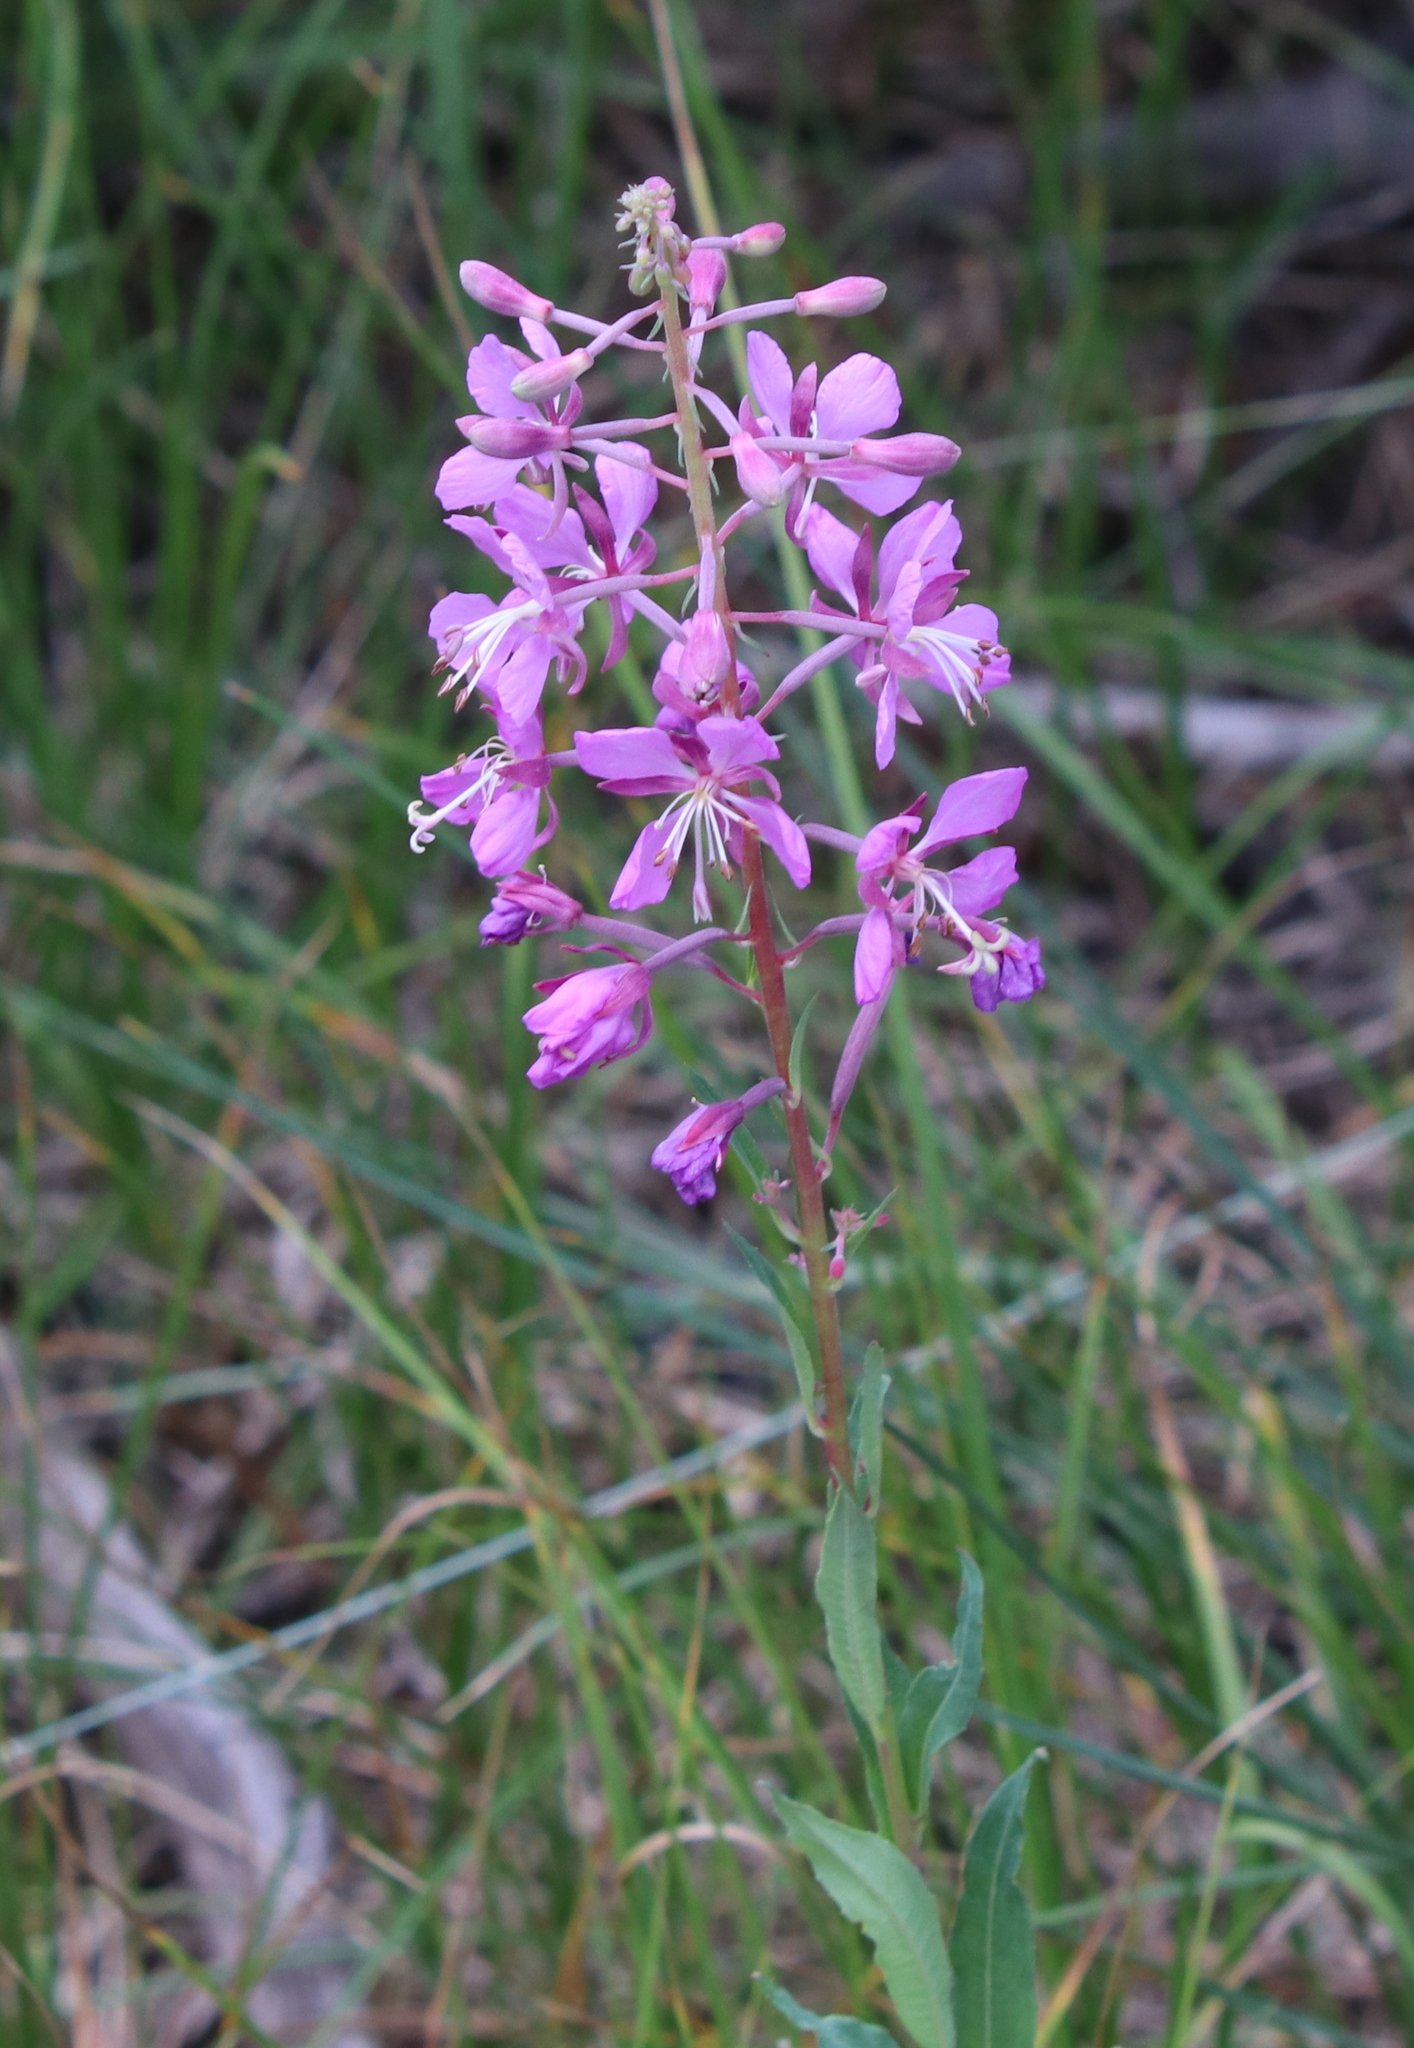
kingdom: Plantae
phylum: Tracheophyta
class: Magnoliopsida
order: Myrtales
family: Onagraceae
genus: Chamaenerion
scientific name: Chamaenerion angustifolium
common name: Fireweed
